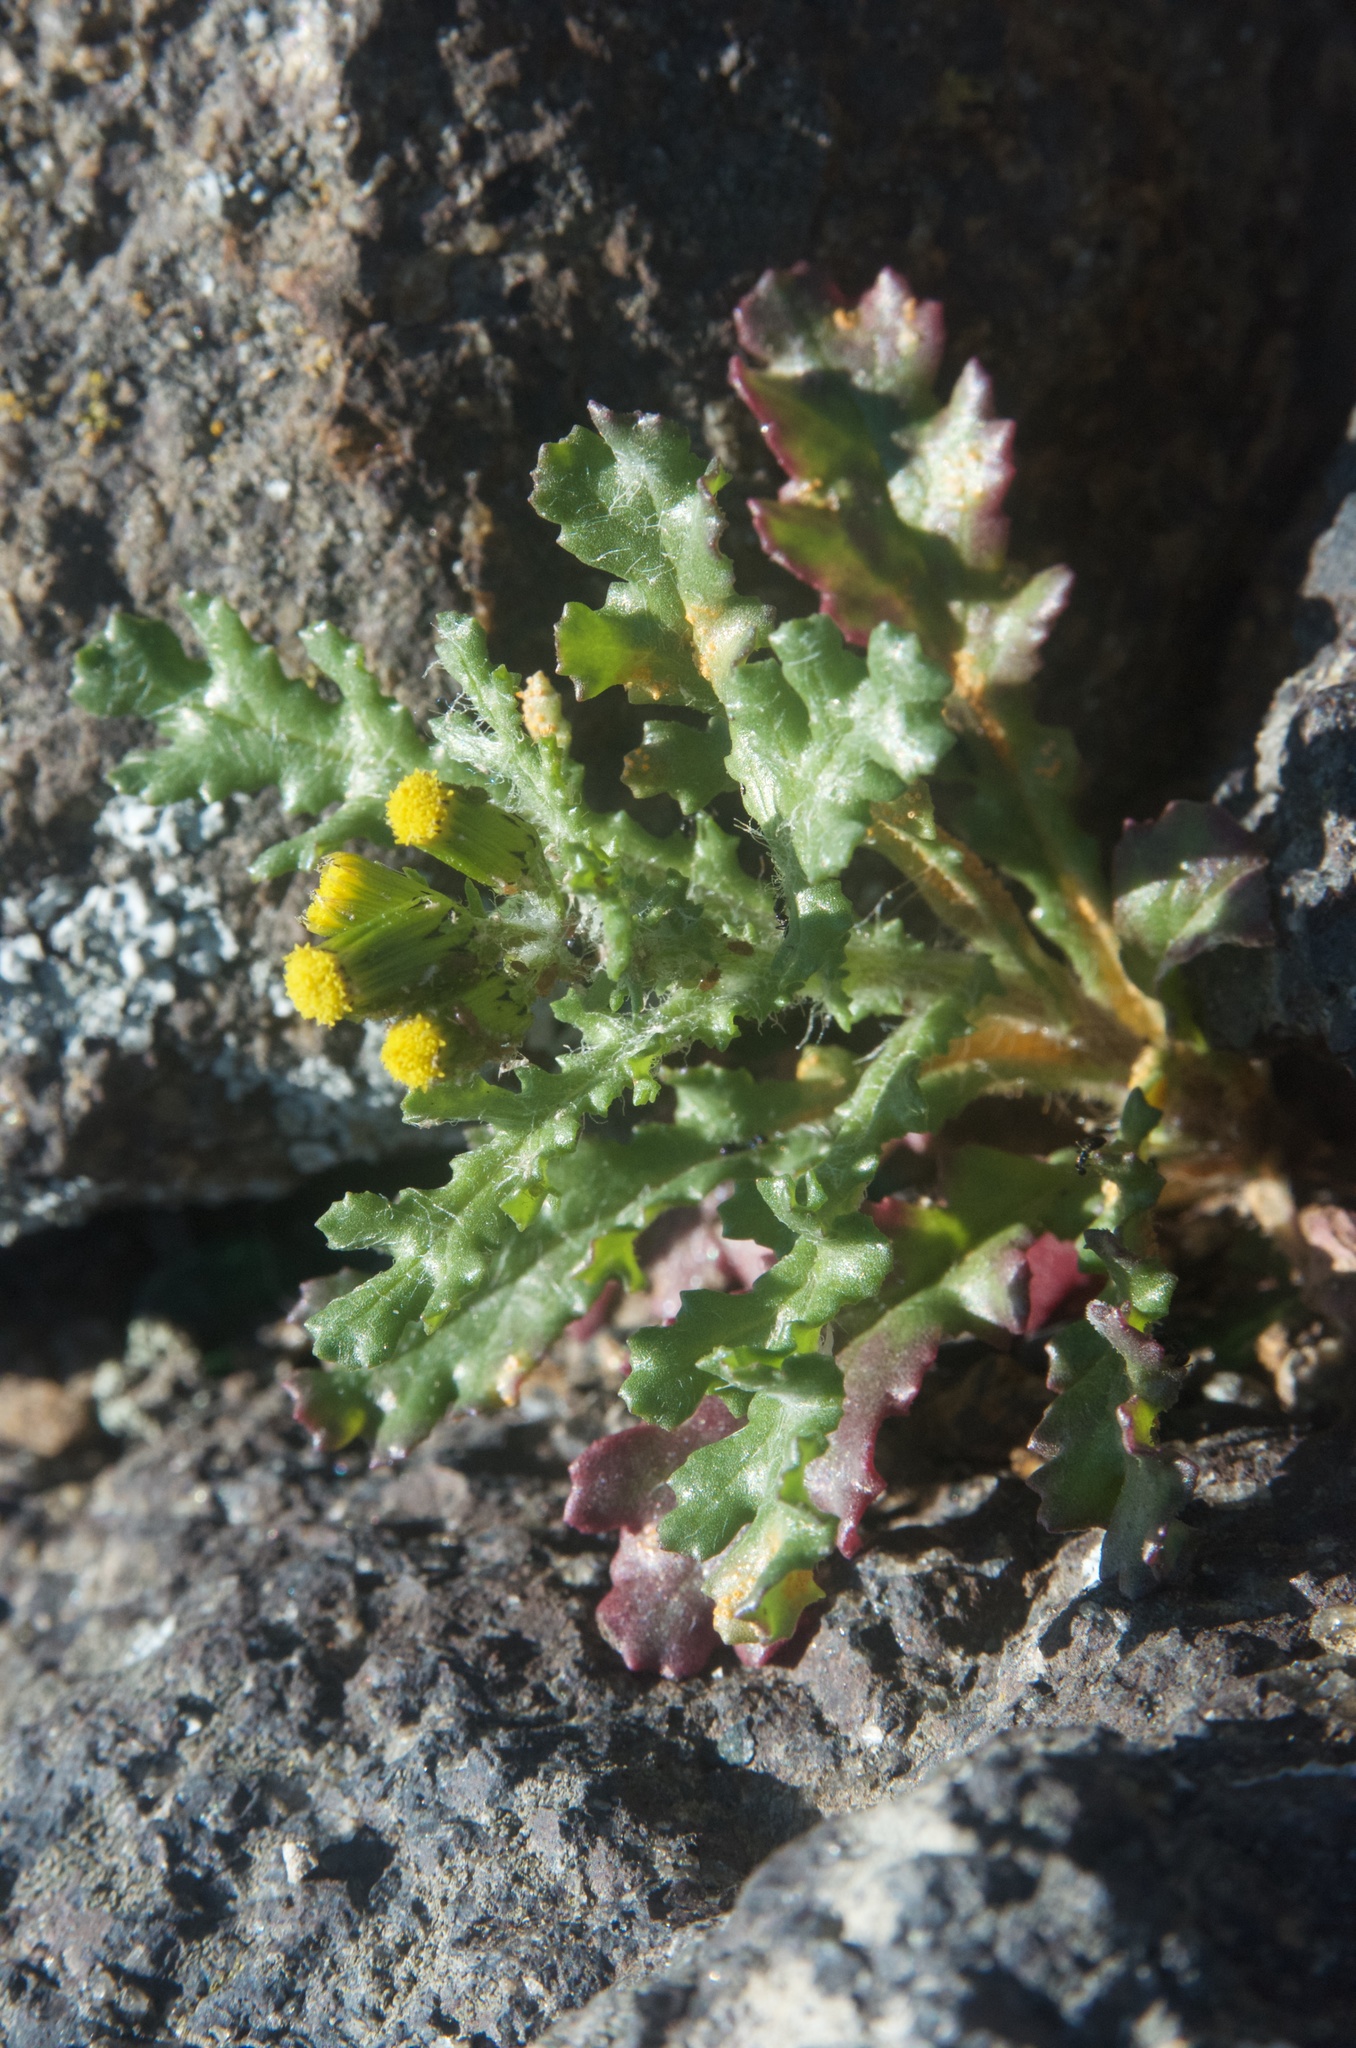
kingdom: Fungi
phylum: Basidiomycota
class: Pucciniomycetes
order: Pucciniales
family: Pucciniaceae
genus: Puccinia
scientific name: Puccinia lagenophorae
